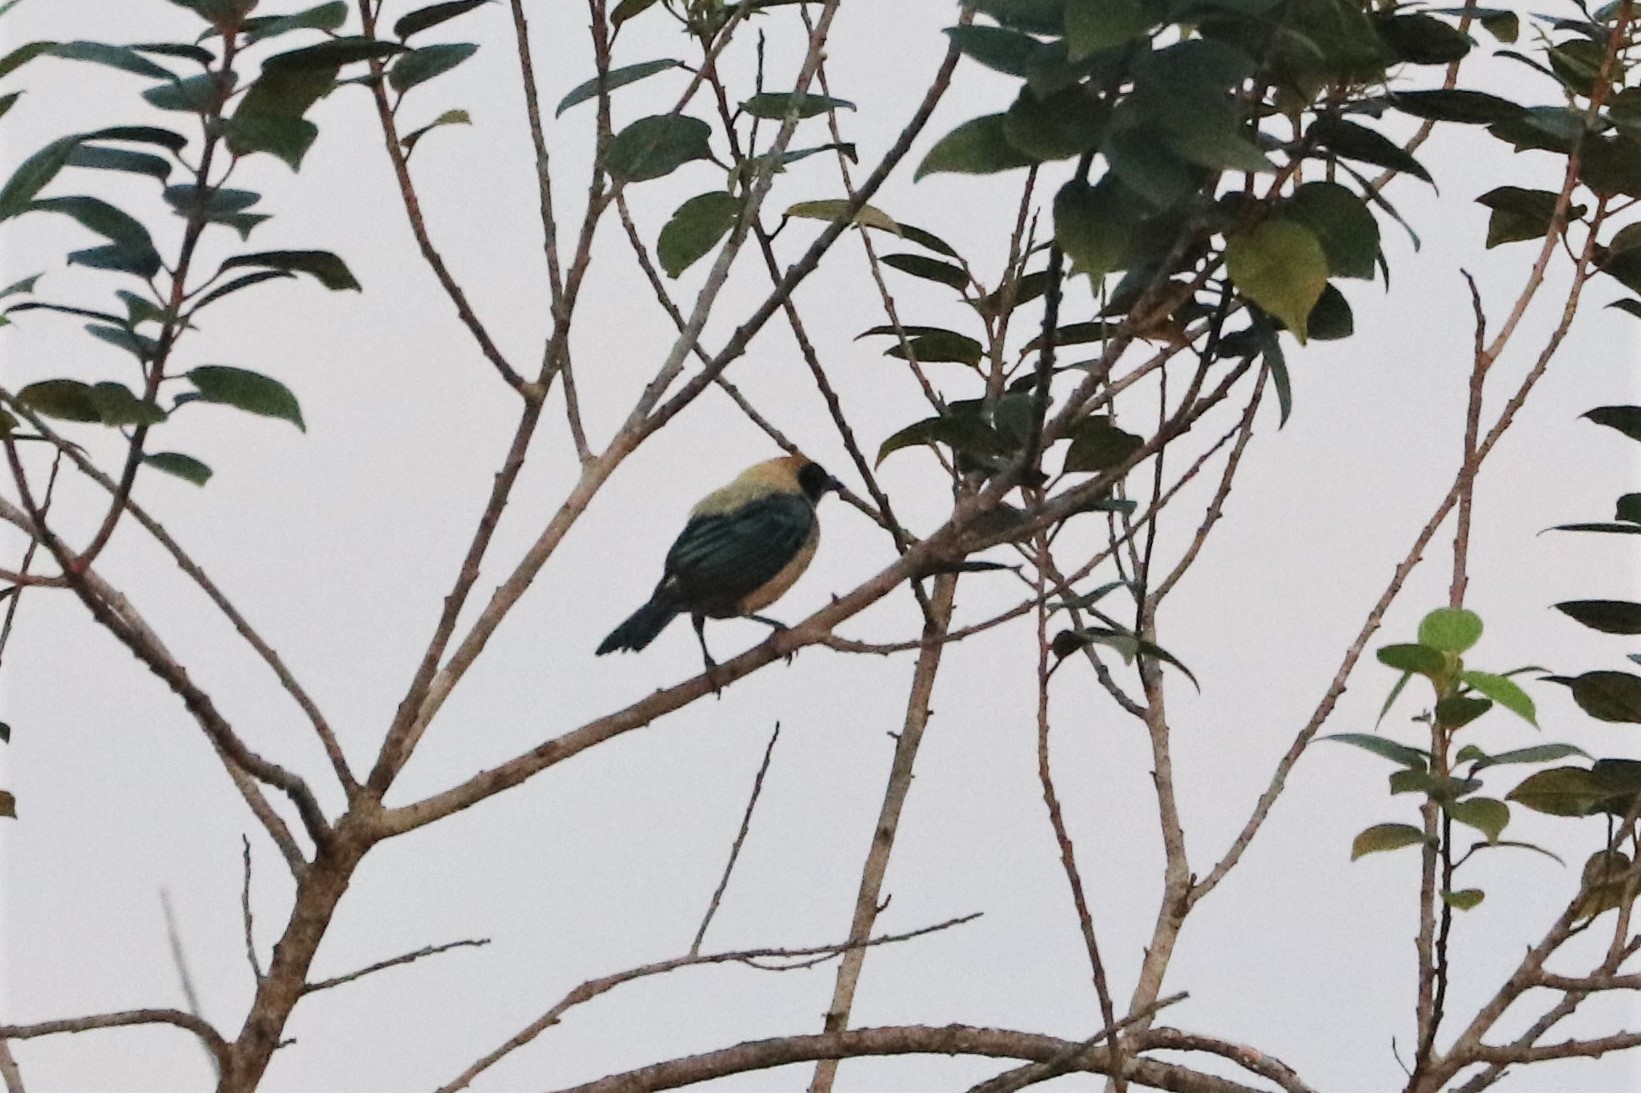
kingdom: Animalia
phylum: Chordata
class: Aves
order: Passeriformes
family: Thraupidae
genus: Stilpnia
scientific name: Stilpnia cayana
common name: Burnished-buff tanager
